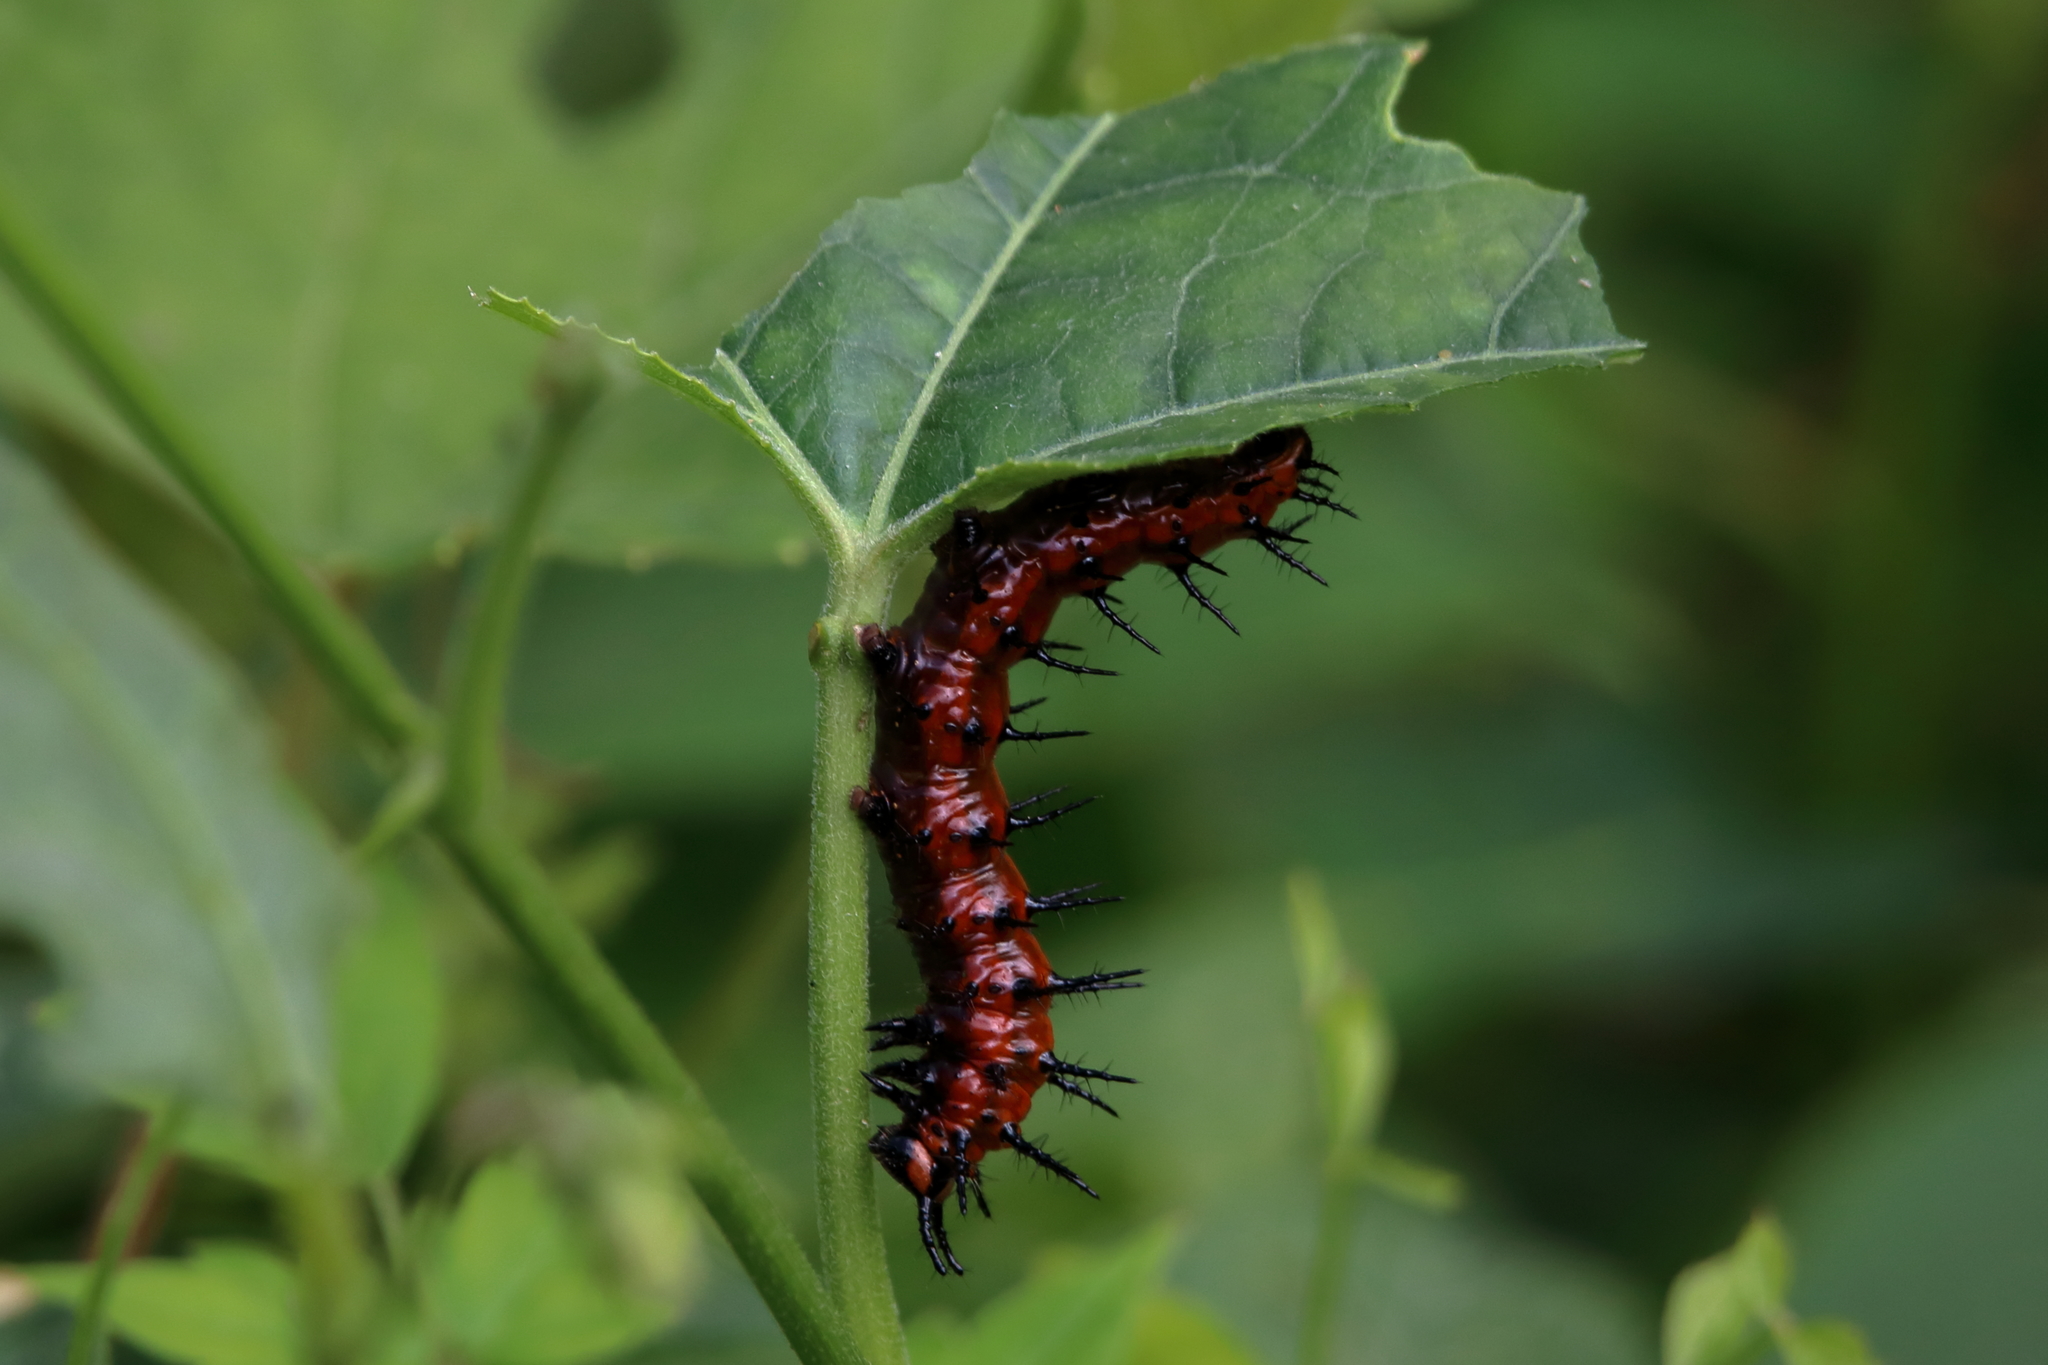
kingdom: Animalia
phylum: Arthropoda
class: Insecta
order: Lepidoptera
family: Nymphalidae
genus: Dione
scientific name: Dione vanillae
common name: Gulf fritillary
